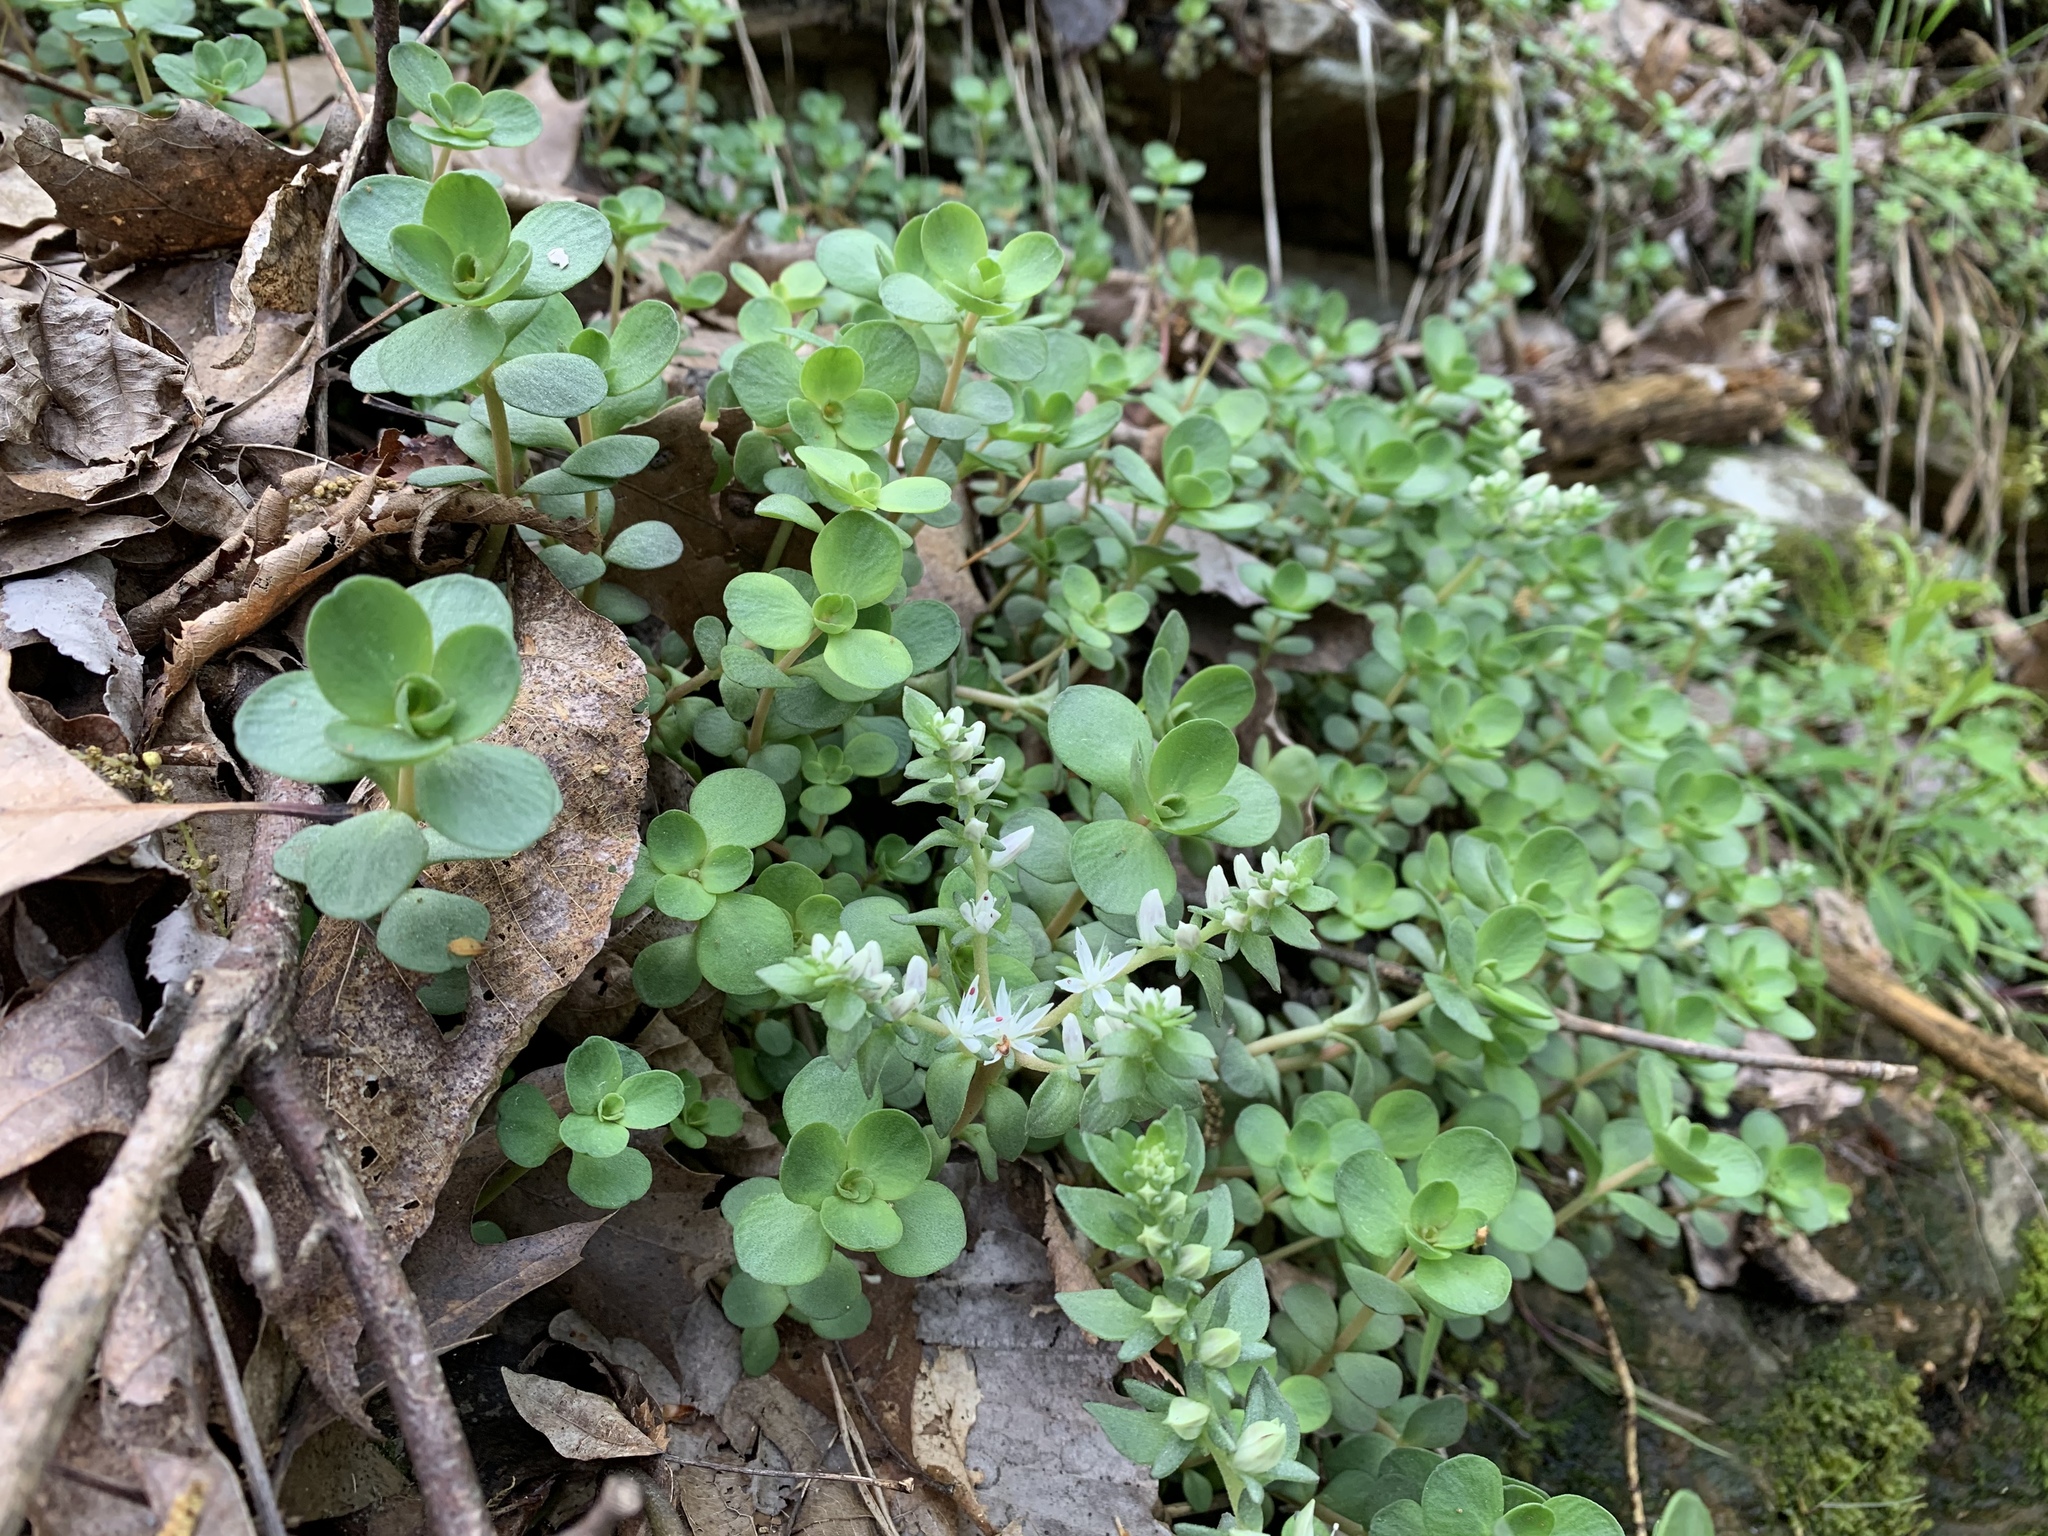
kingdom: Plantae
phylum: Tracheophyta
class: Magnoliopsida
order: Saxifragales
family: Crassulaceae
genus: Sedum
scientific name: Sedum ternatum
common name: Wild stonecrop
